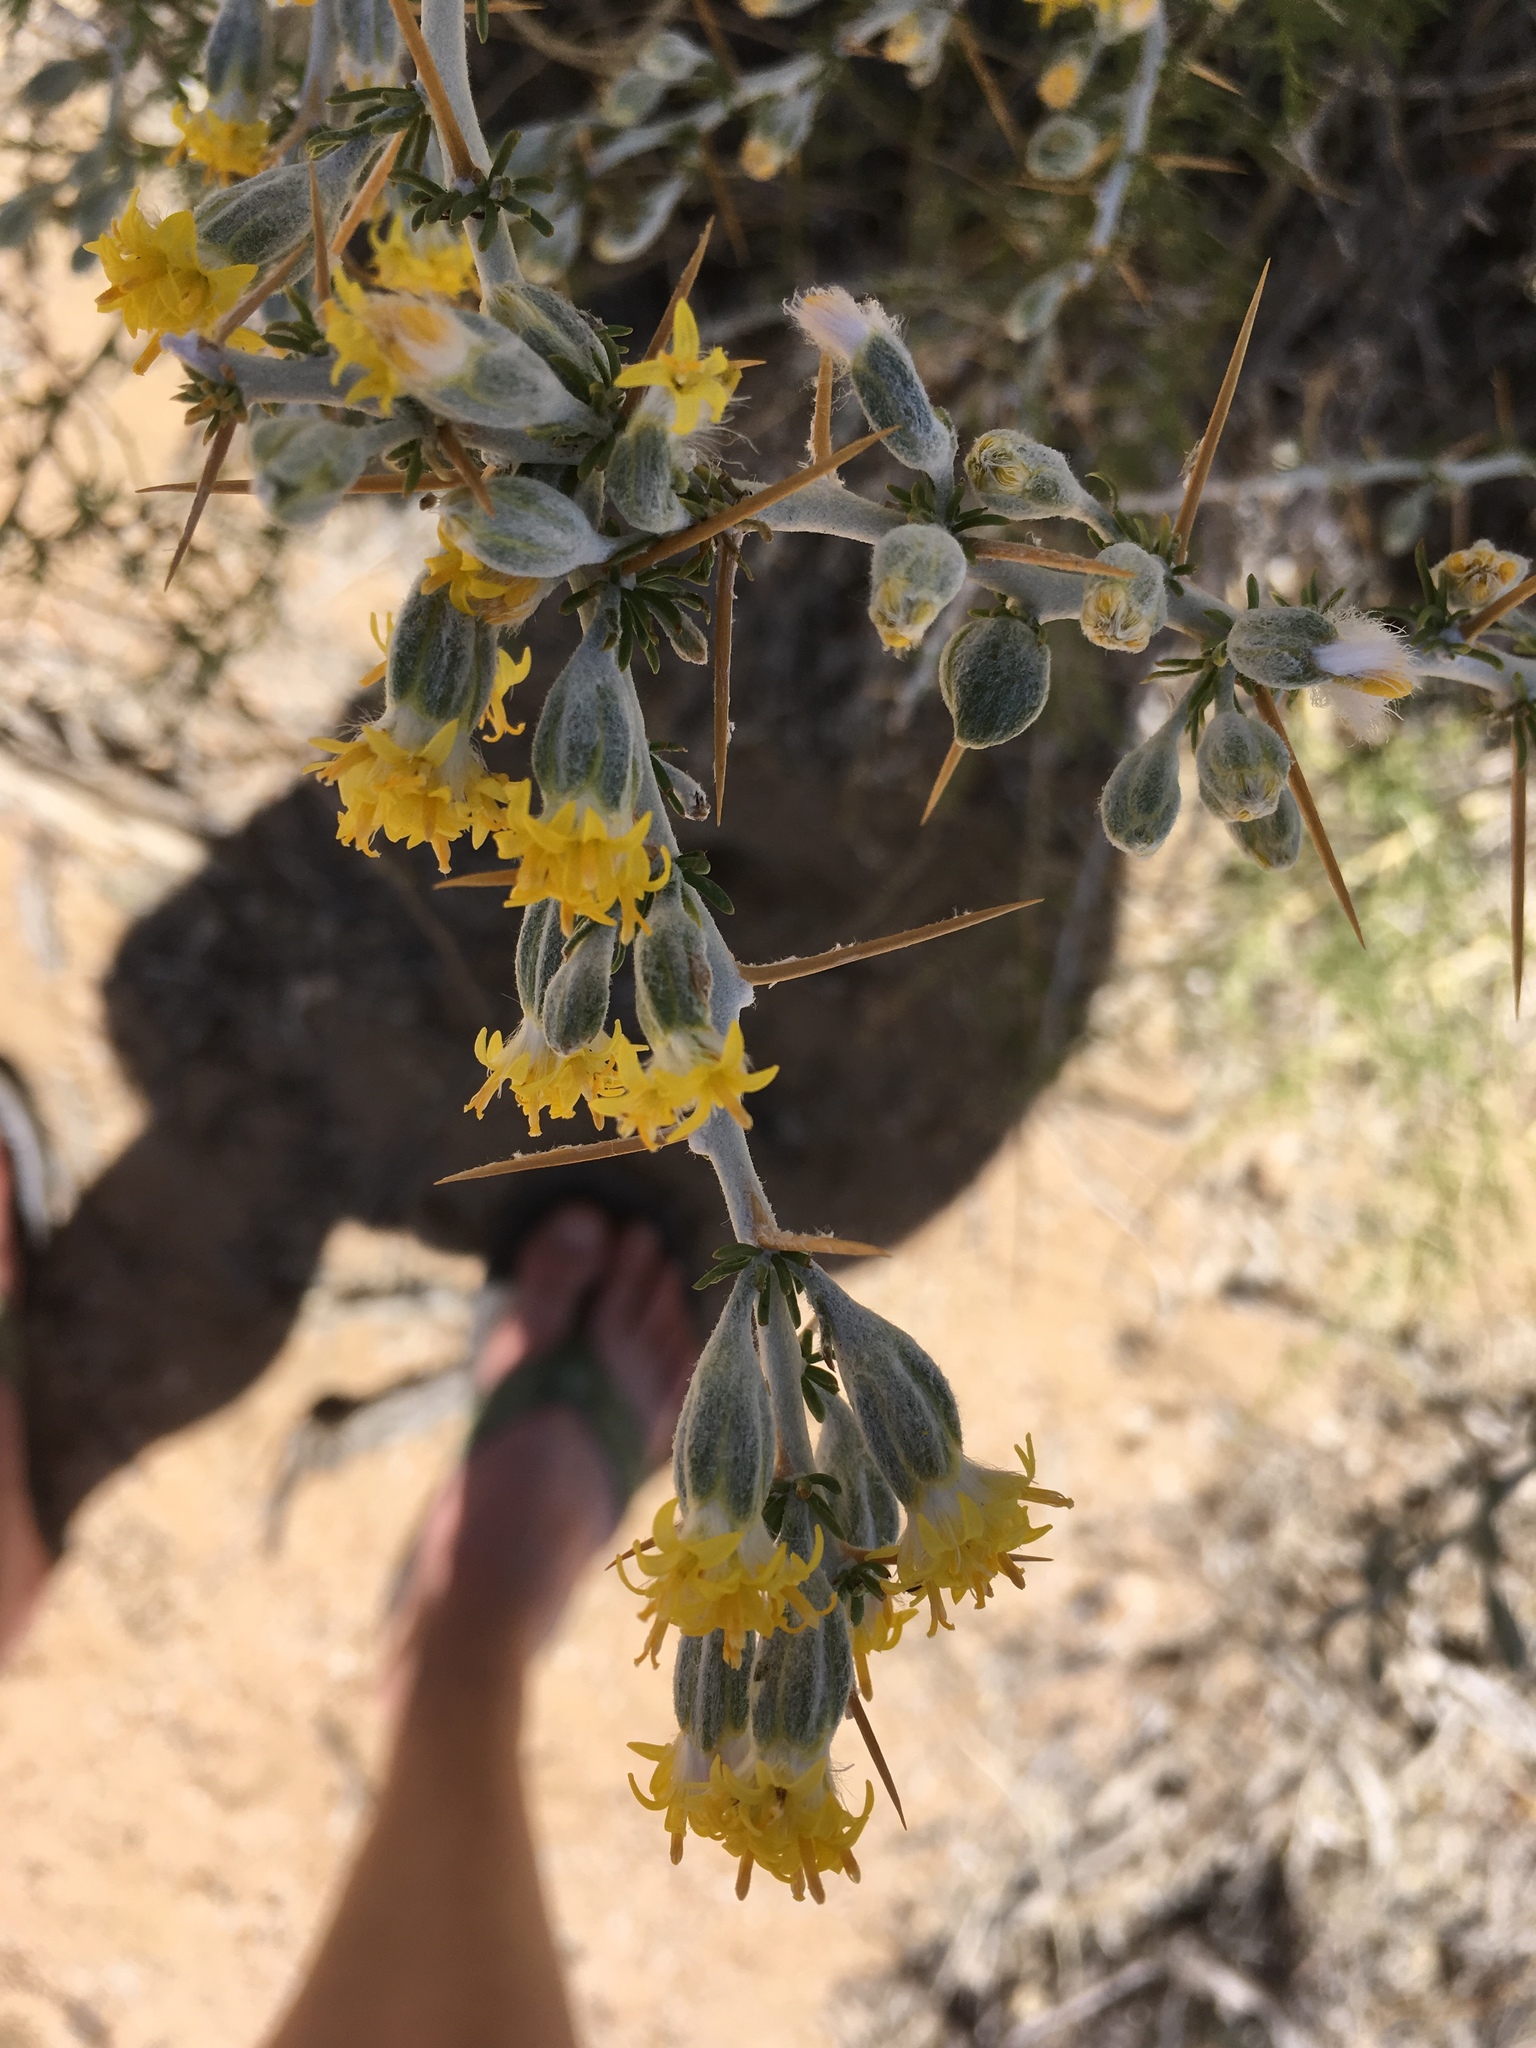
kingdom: Plantae
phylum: Tracheophyta
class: Magnoliopsida
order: Asterales
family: Asteraceae
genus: Tetradymia
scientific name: Tetradymia axillaris
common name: Long-spine horsebrush
